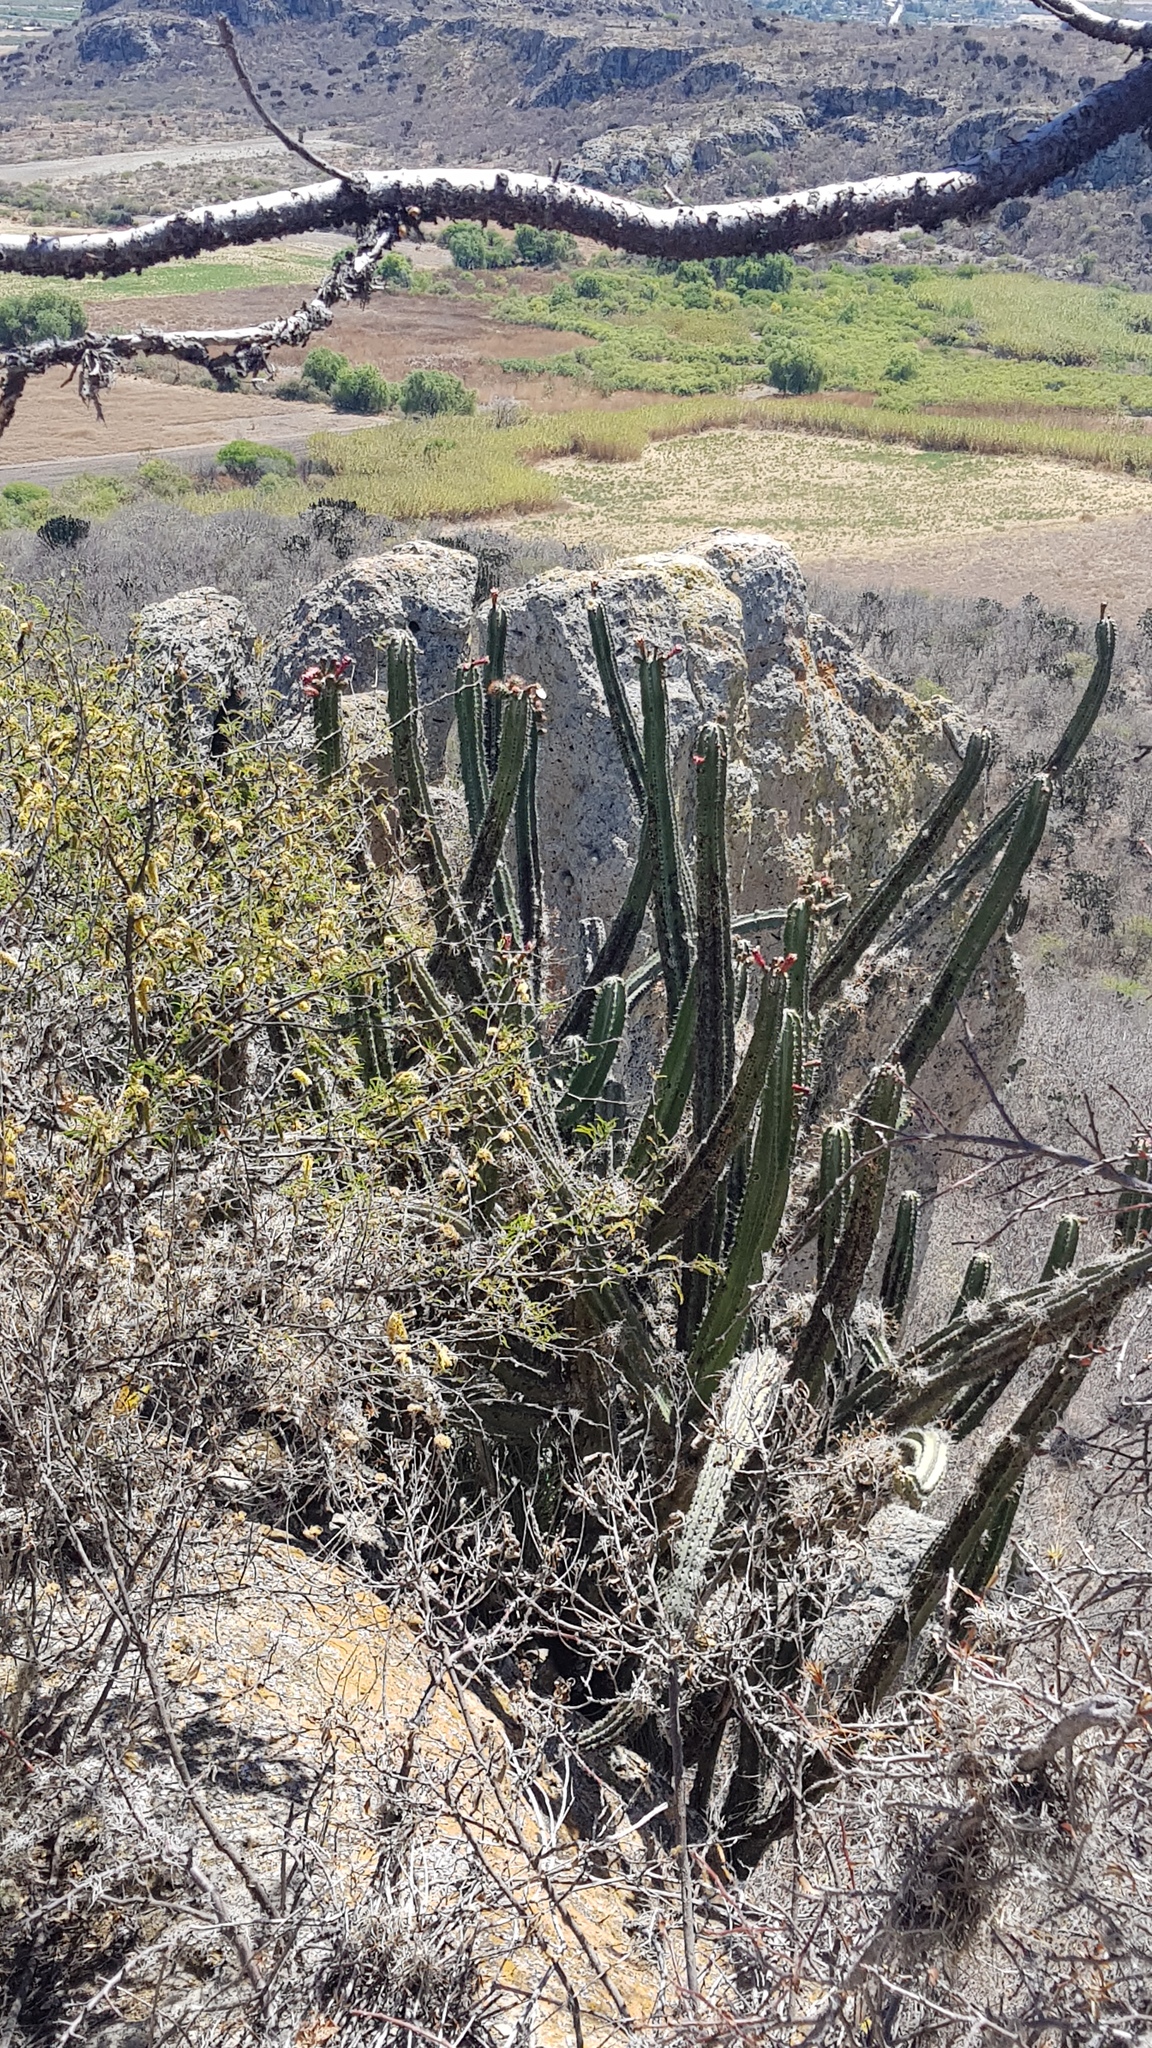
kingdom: Plantae
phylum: Tracheophyta
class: Magnoliopsida
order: Caryophyllales
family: Cactaceae
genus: Stenocereus
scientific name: Stenocereus pruinosus
